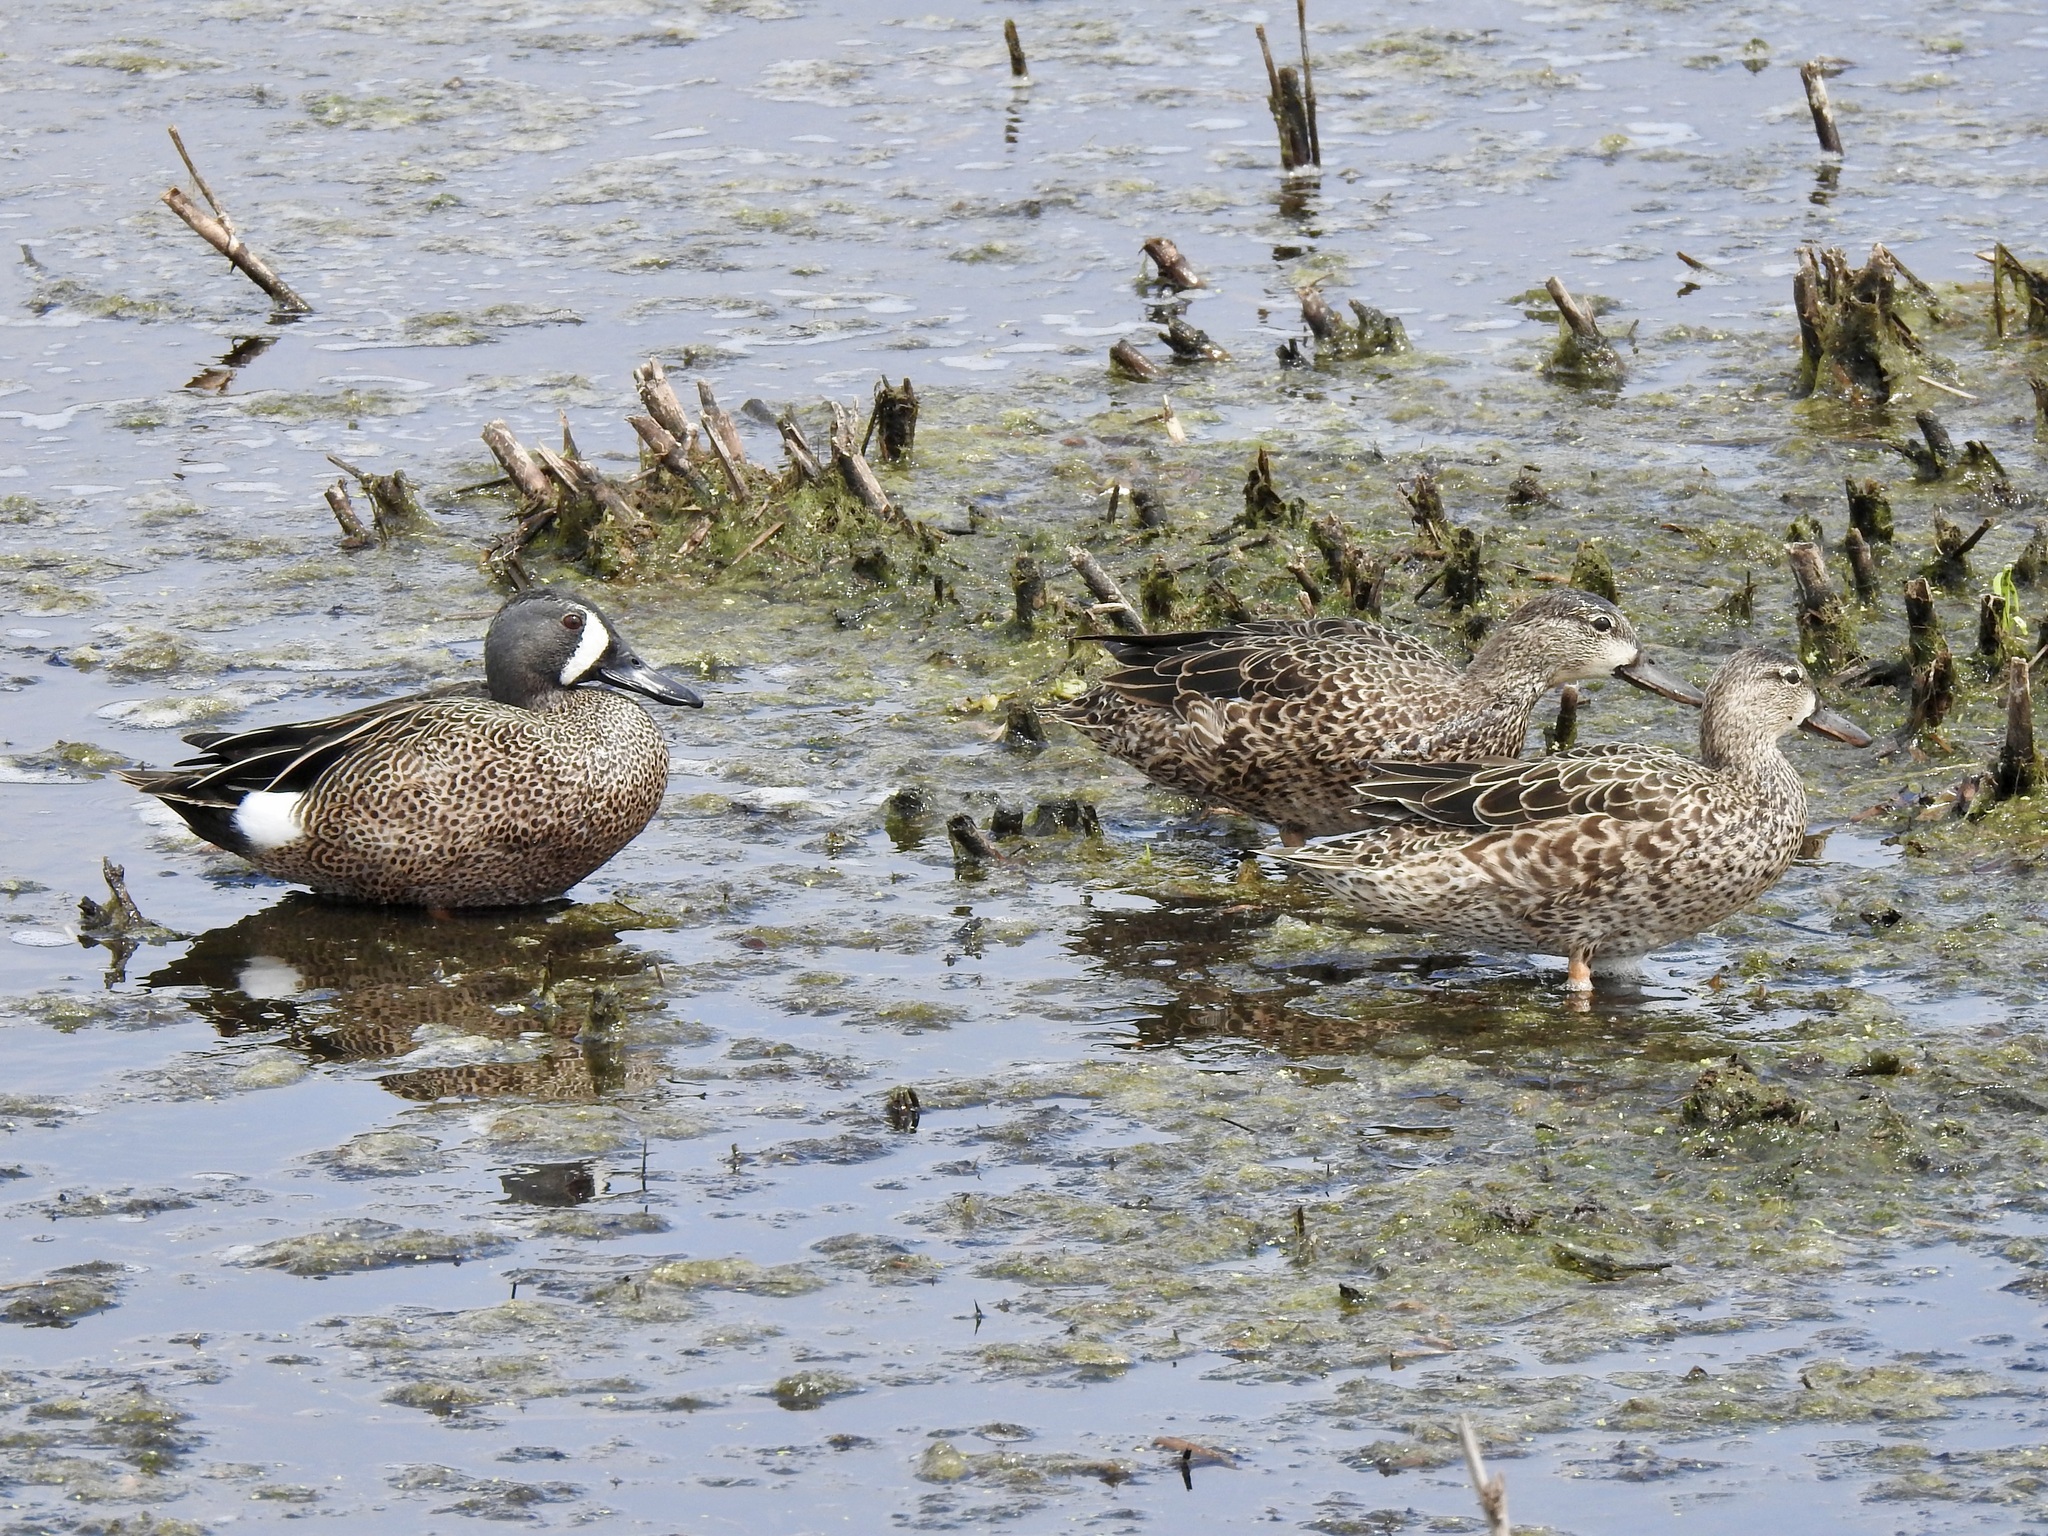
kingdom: Animalia
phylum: Chordata
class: Aves
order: Anseriformes
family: Anatidae
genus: Spatula
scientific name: Spatula discors
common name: Blue-winged teal
